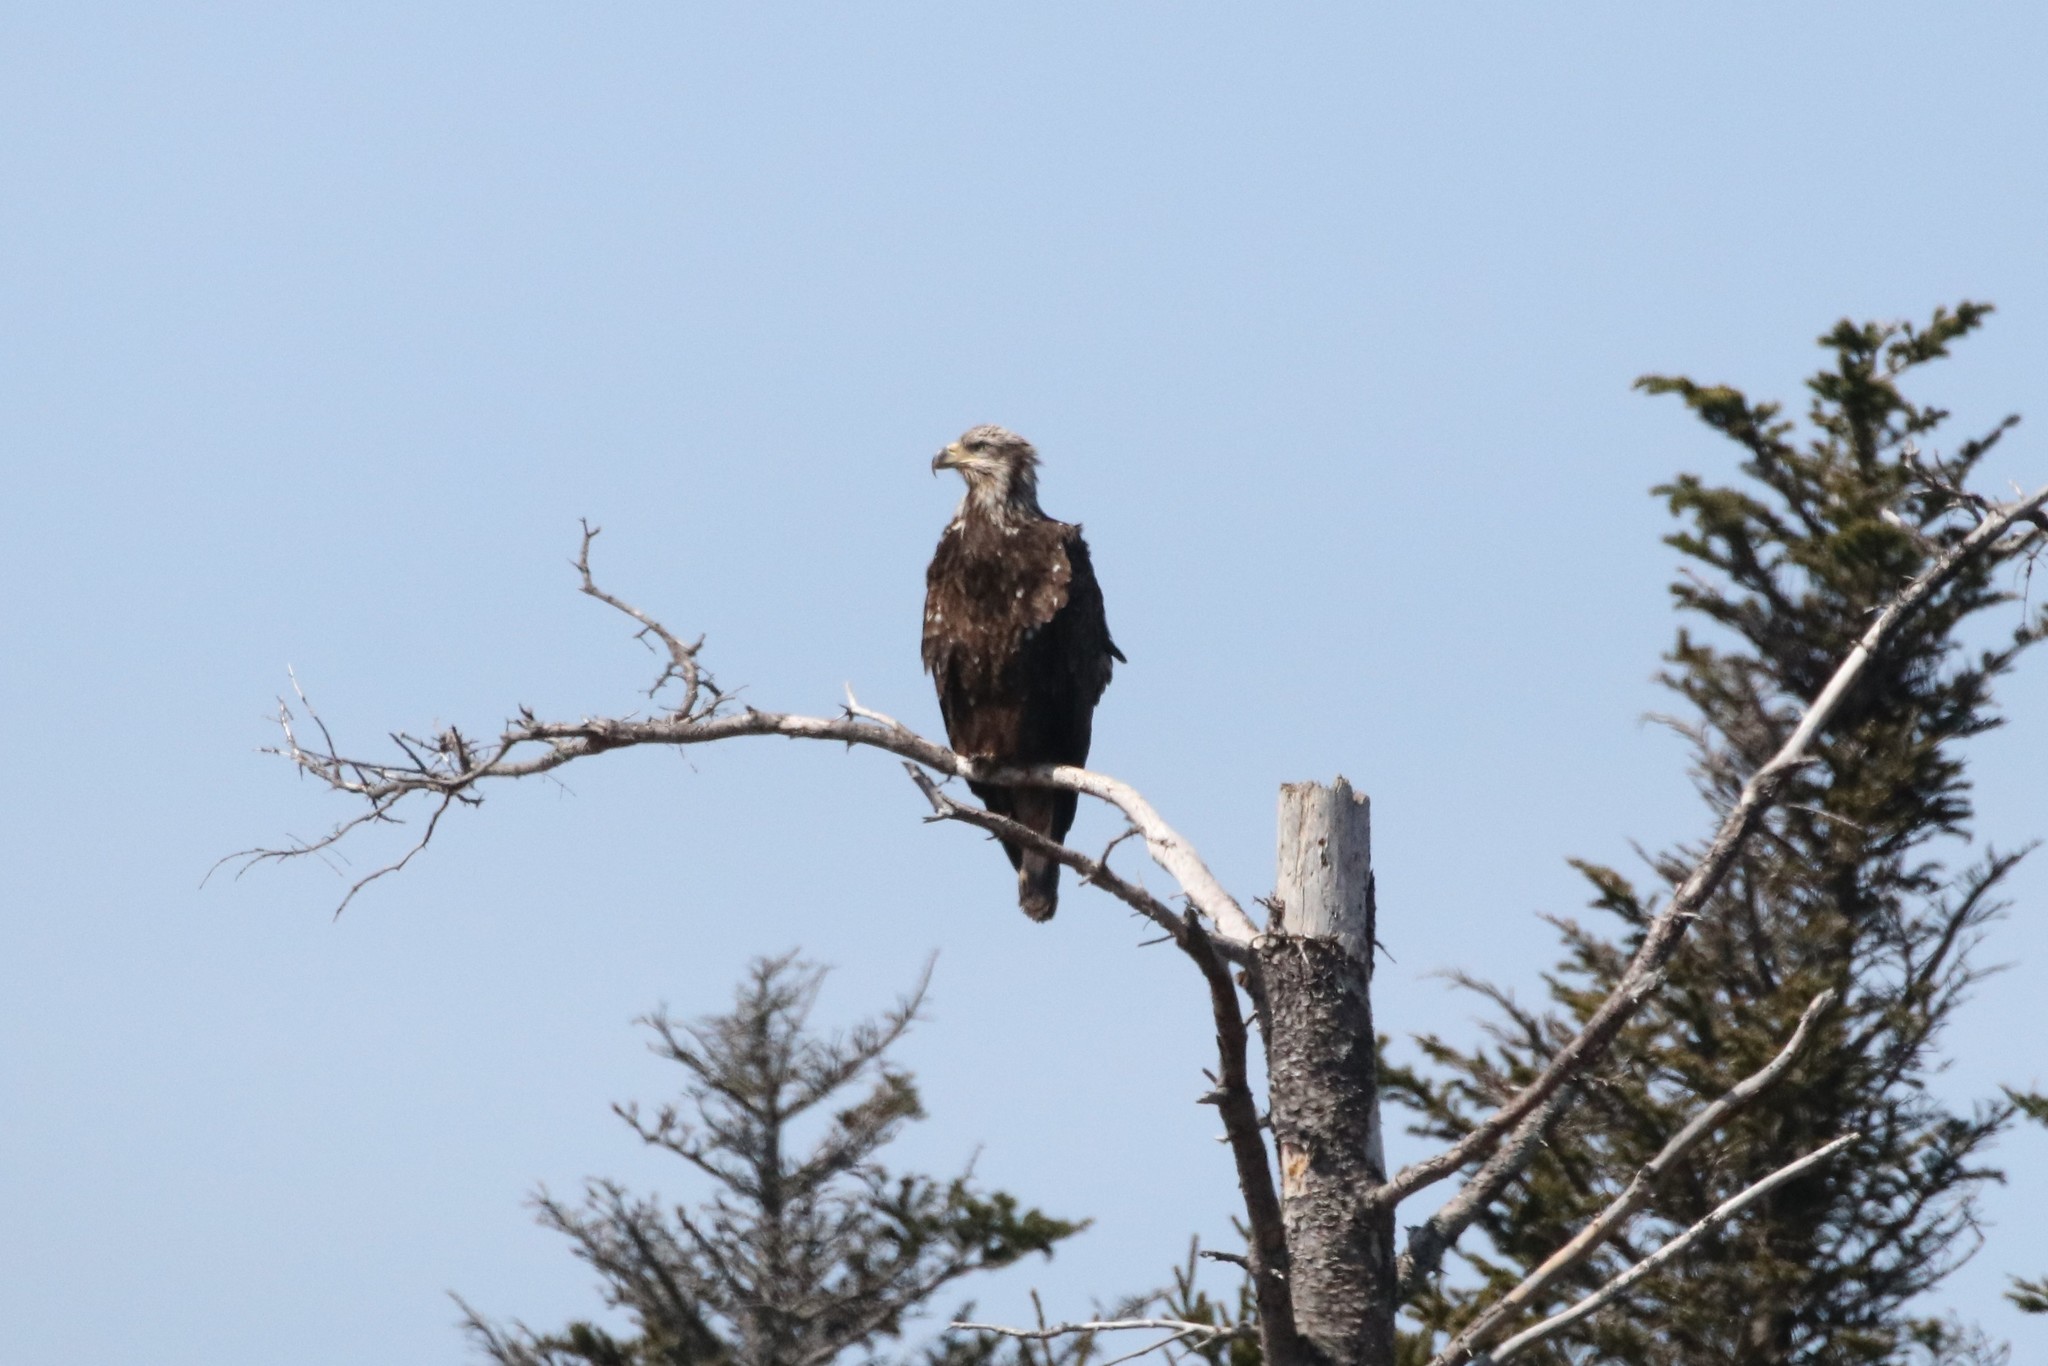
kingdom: Animalia
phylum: Chordata
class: Aves
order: Accipitriformes
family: Accipitridae
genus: Haliaeetus
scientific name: Haliaeetus leucocephalus
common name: Bald eagle
